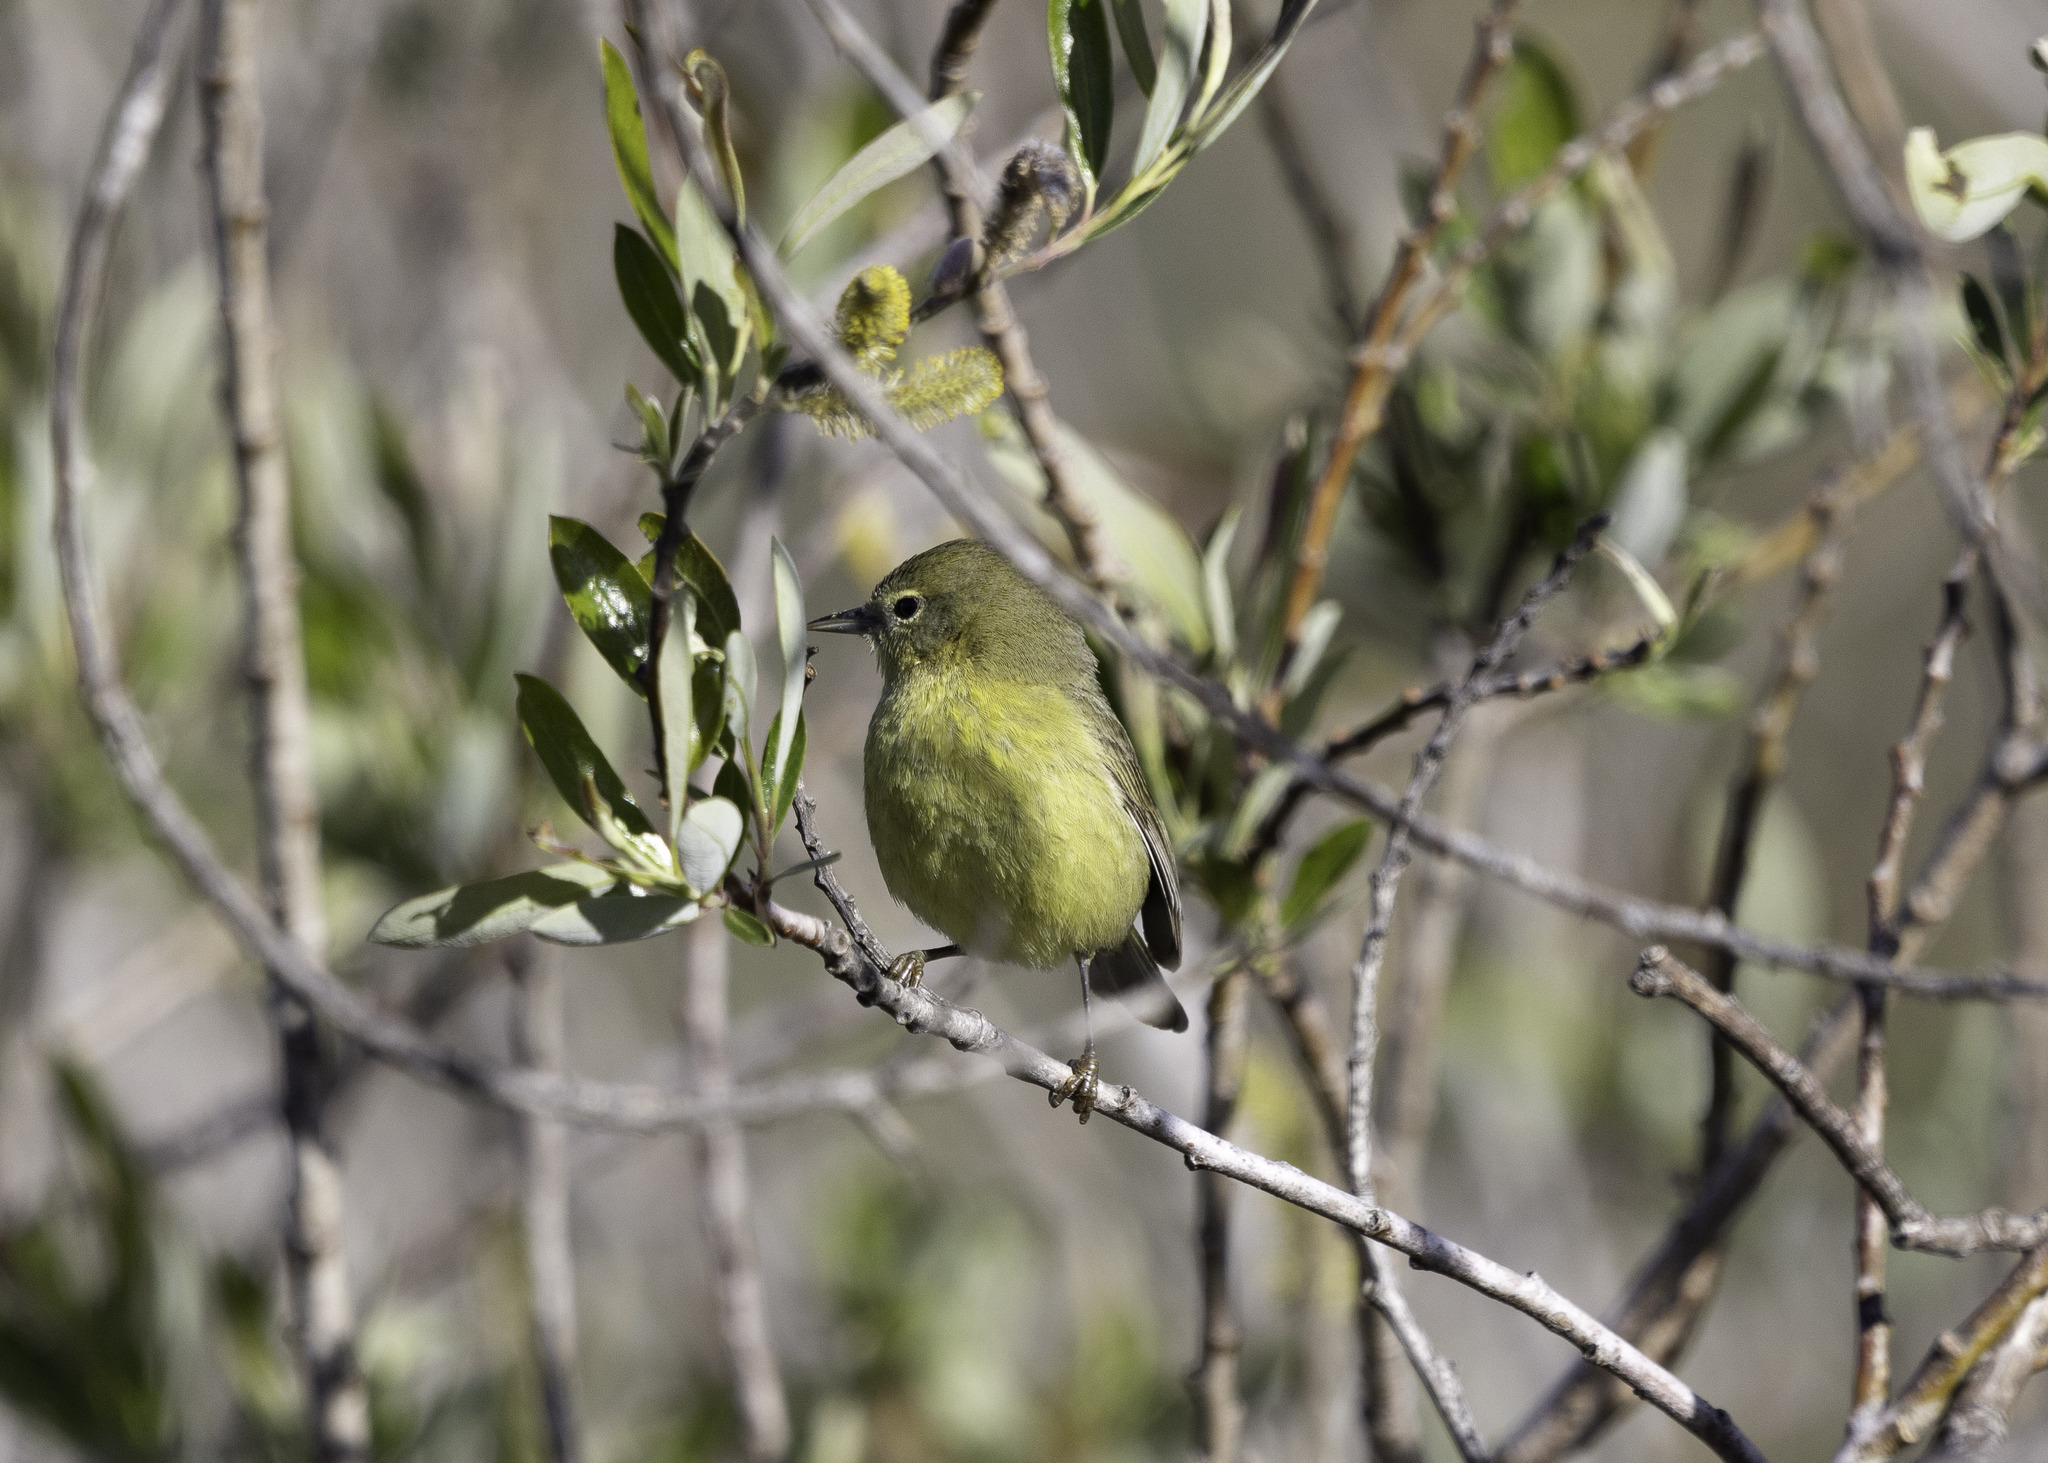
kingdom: Animalia
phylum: Chordata
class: Aves
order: Passeriformes
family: Parulidae
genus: Leiothlypis
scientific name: Leiothlypis celata
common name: Orange-crowned warbler
